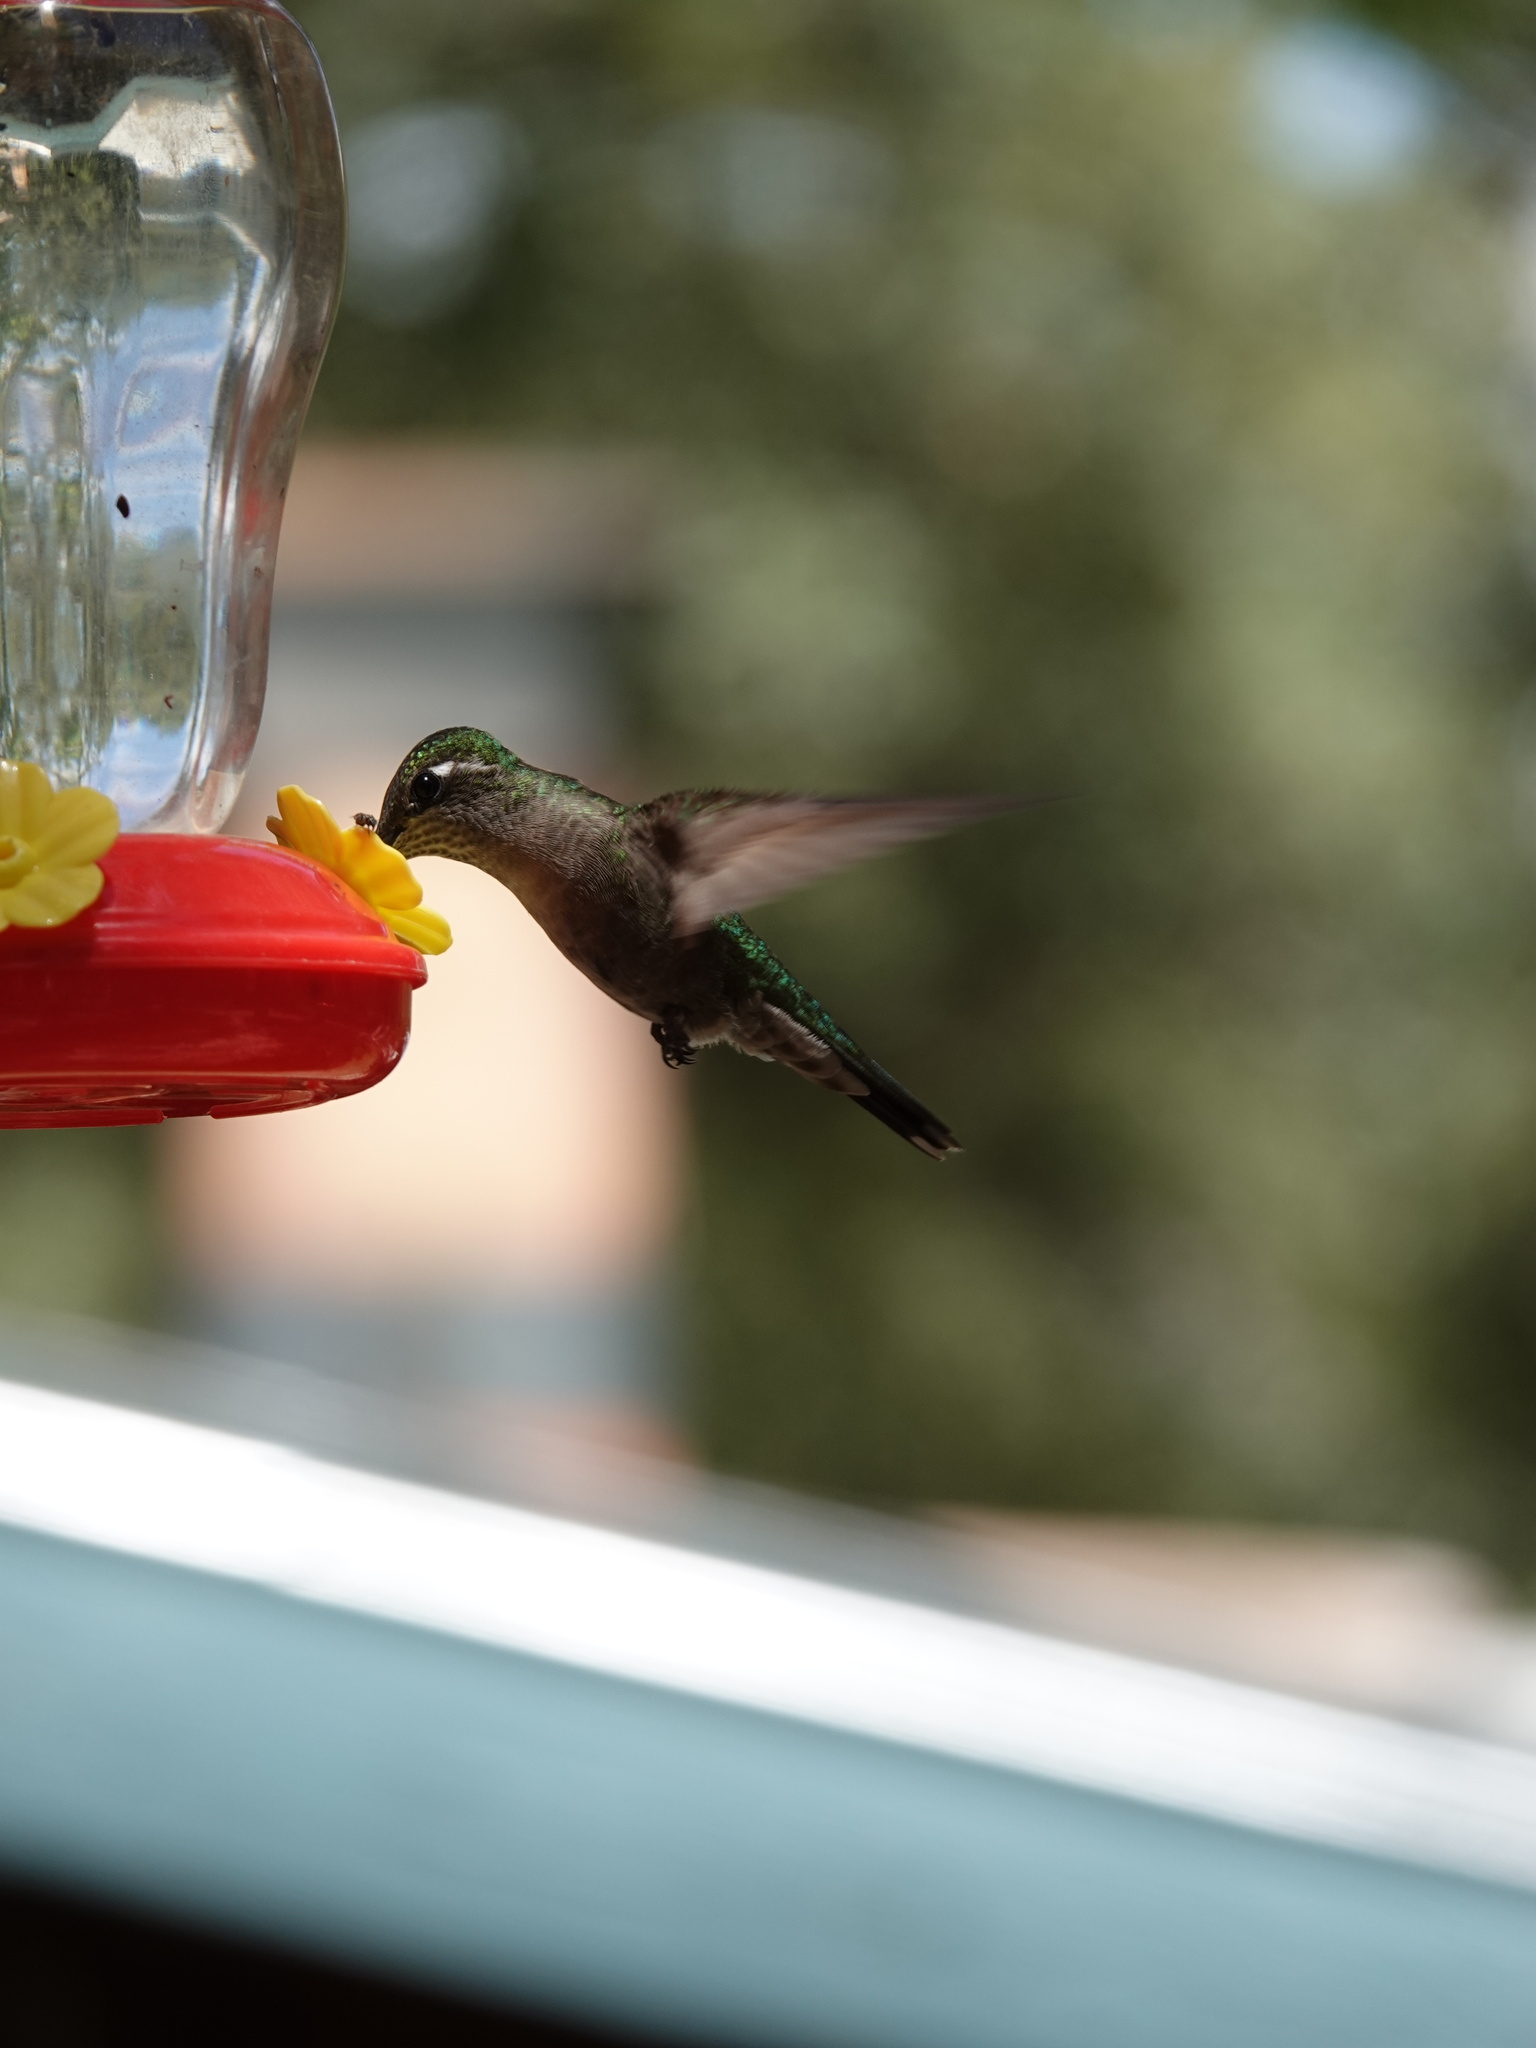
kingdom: Animalia
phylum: Chordata
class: Aves
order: Apodiformes
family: Trochilidae
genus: Eugenes
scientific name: Eugenes fulgens
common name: Magnificent hummingbird
